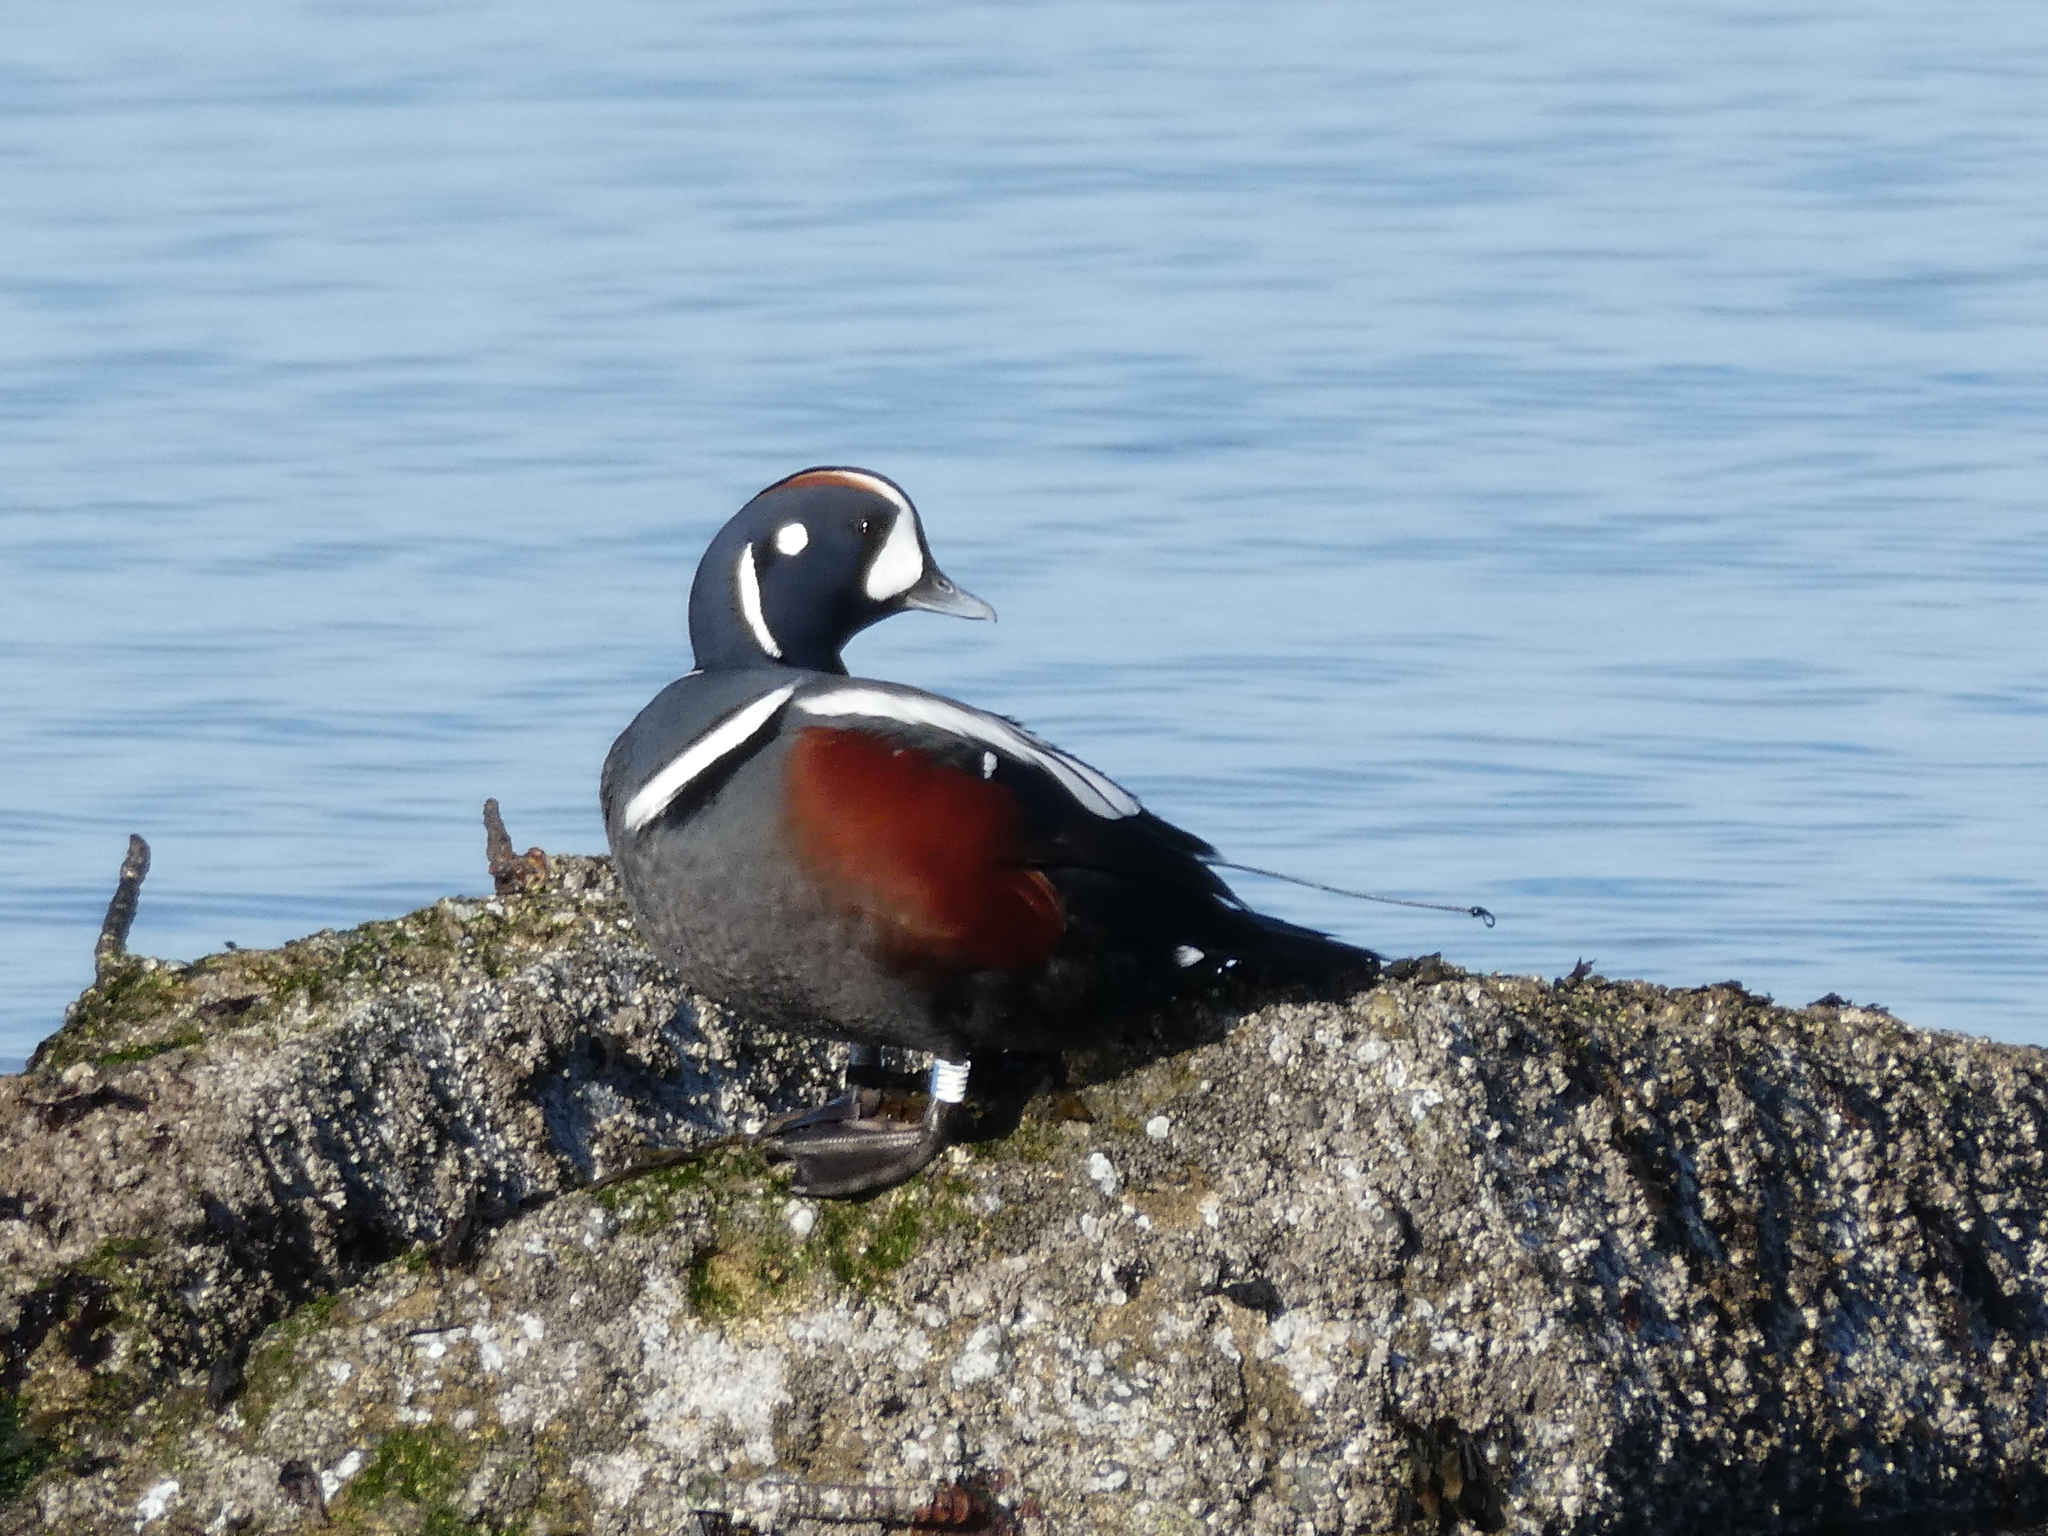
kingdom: Animalia
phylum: Chordata
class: Aves
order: Anseriformes
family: Anatidae
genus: Histrionicus
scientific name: Histrionicus histrionicus
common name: Harlequin duck
